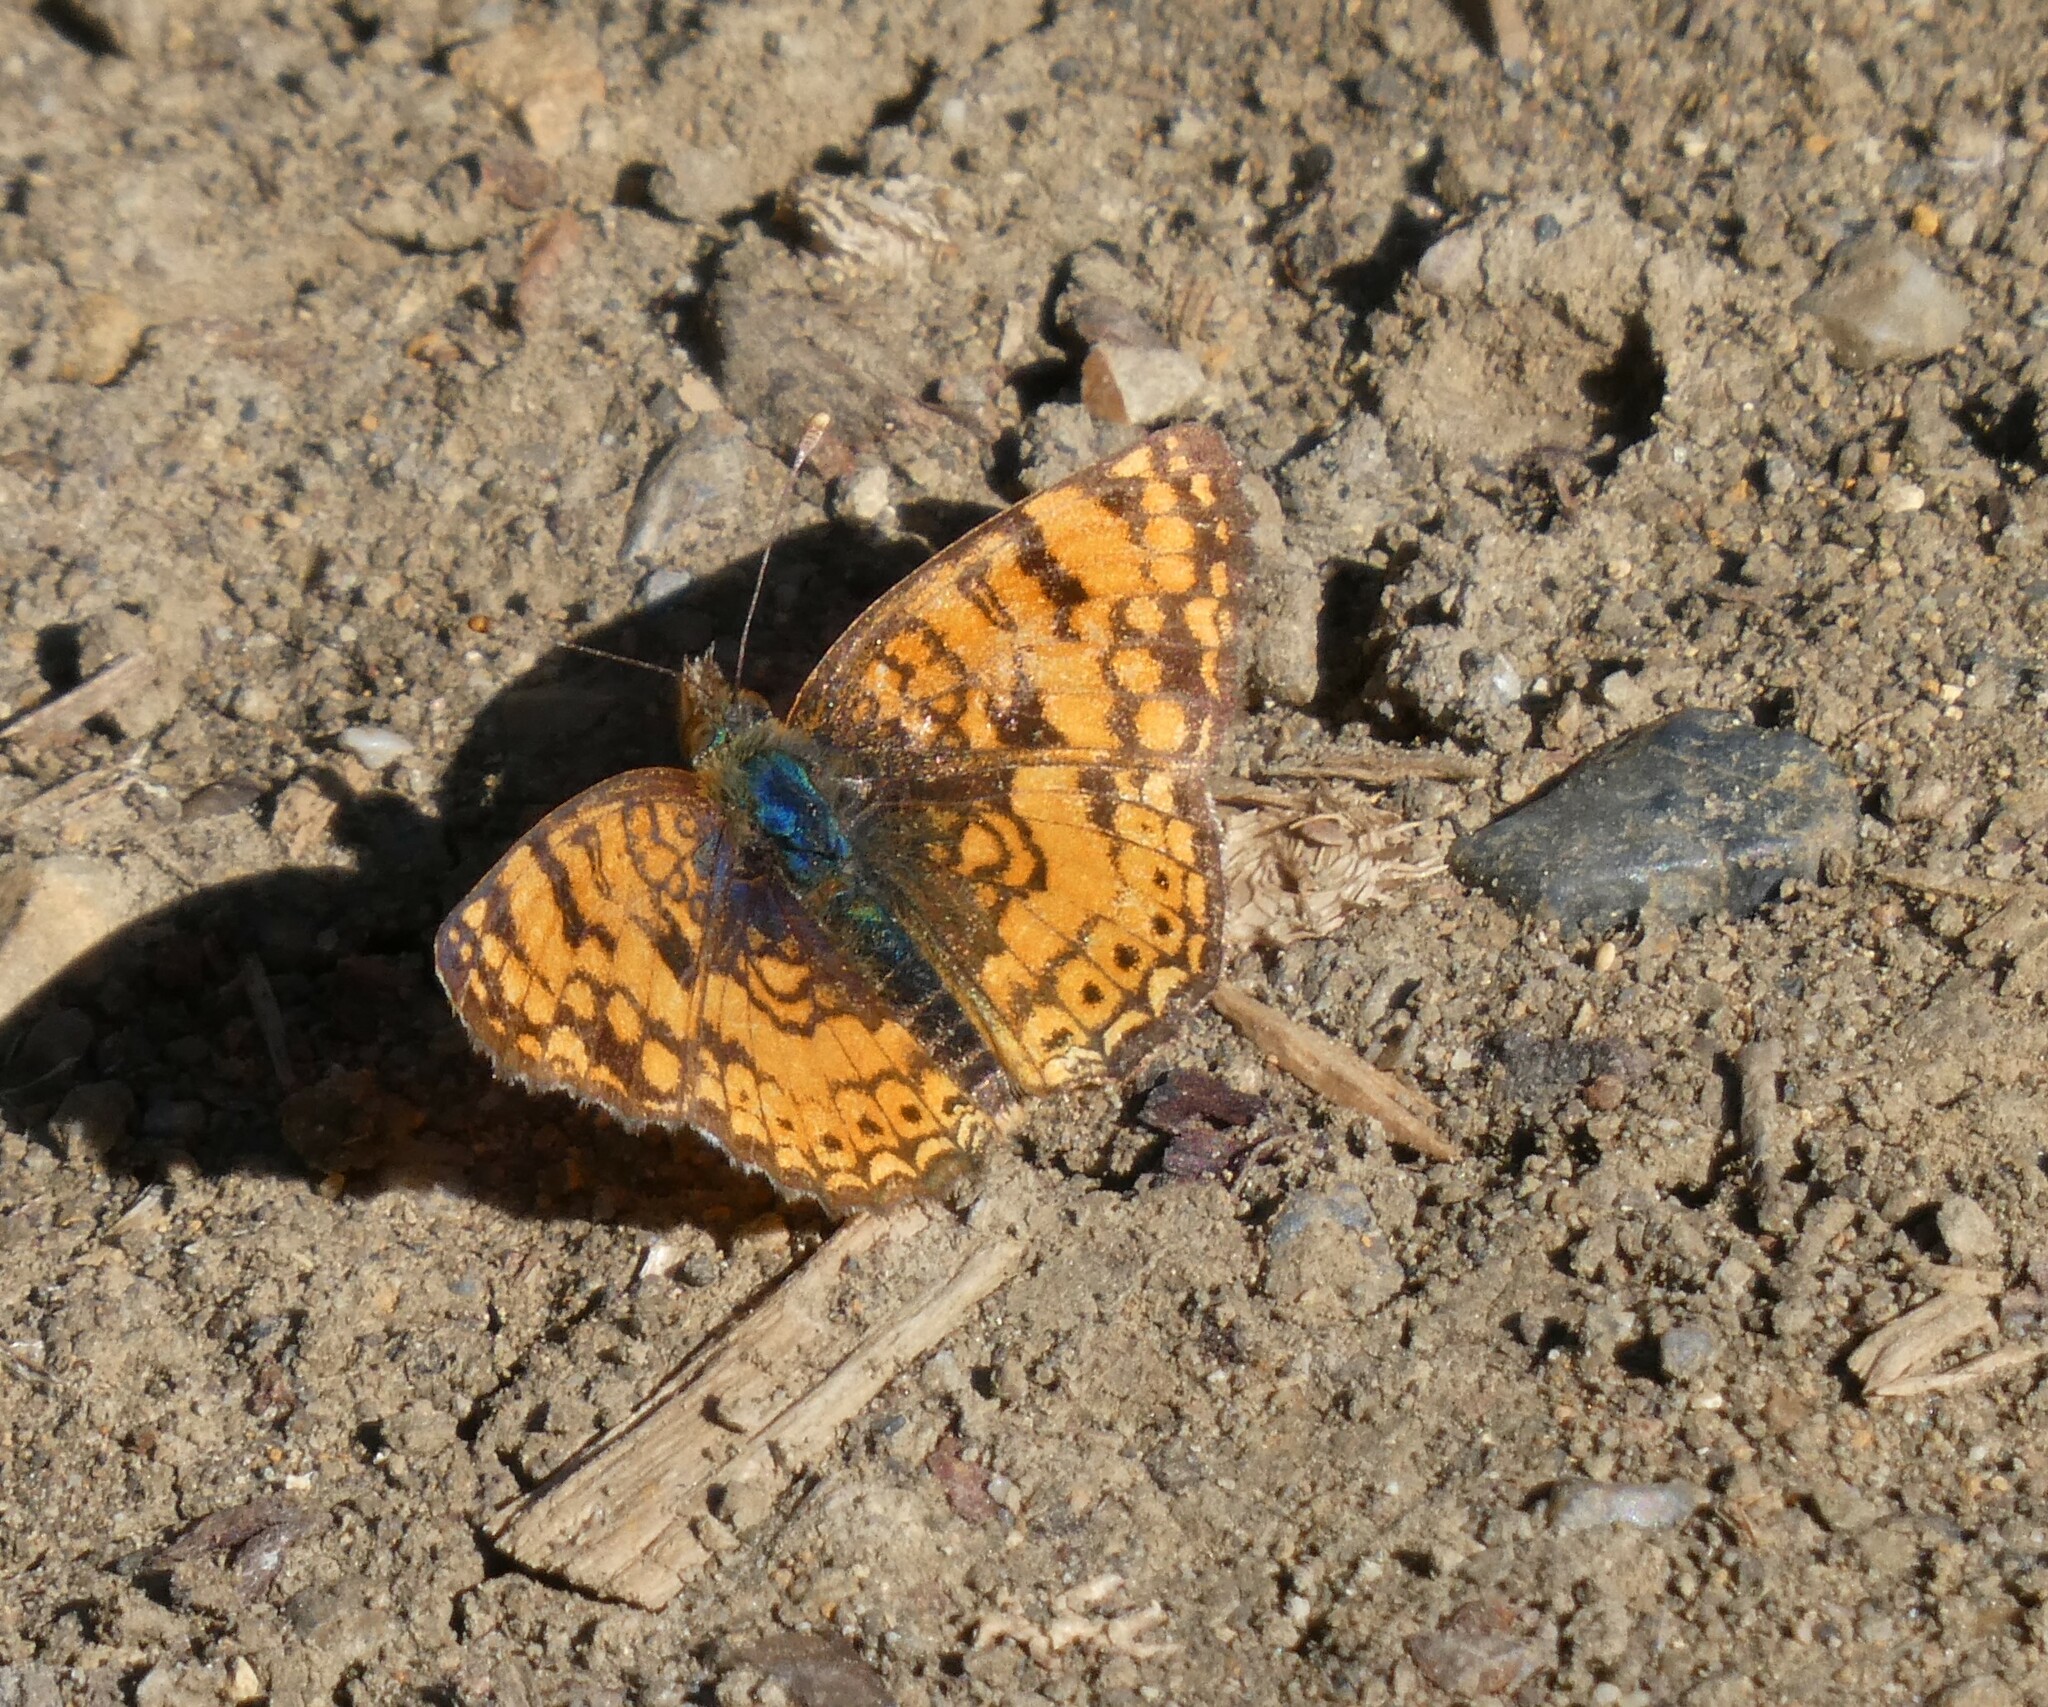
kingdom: Animalia
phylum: Arthropoda
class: Insecta
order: Lepidoptera
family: Nymphalidae
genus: Eresia
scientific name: Eresia aveyrona
